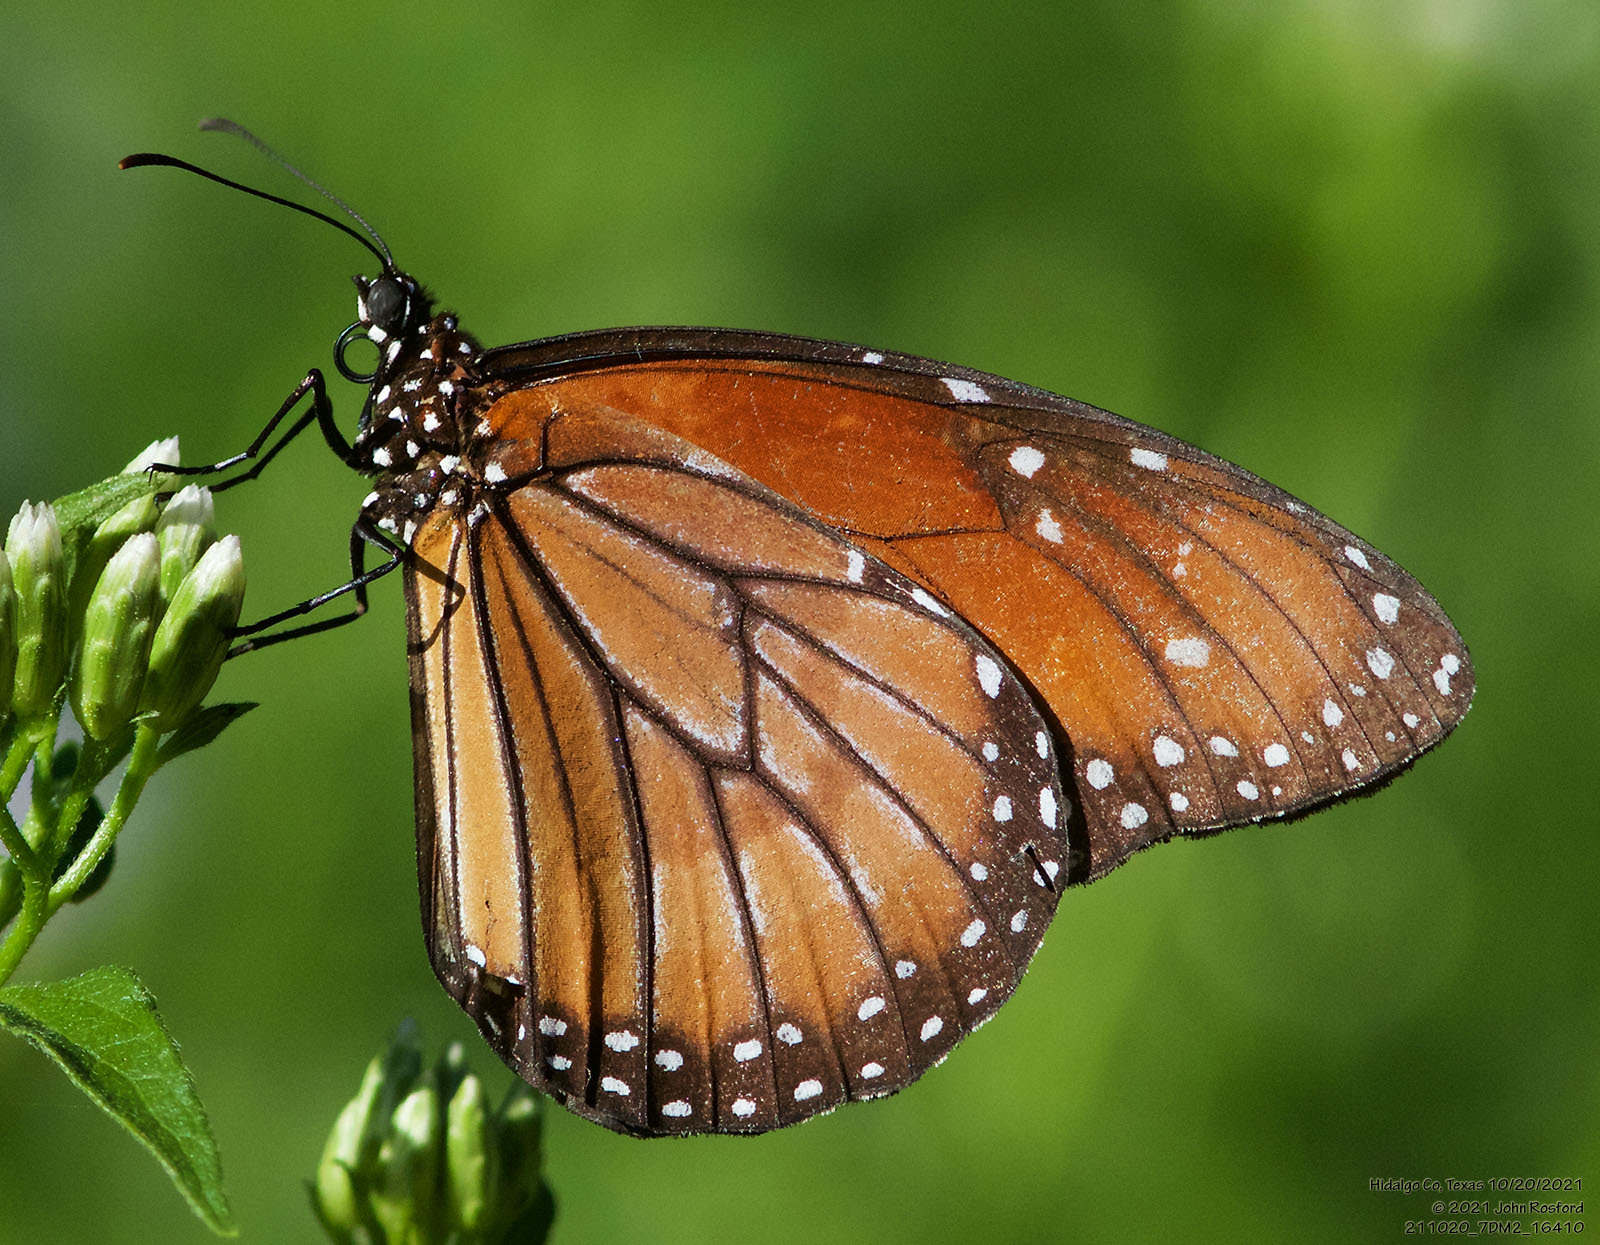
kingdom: Animalia
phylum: Arthropoda
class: Insecta
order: Lepidoptera
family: Nymphalidae
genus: Danaus
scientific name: Danaus eresimus
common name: Soldier
